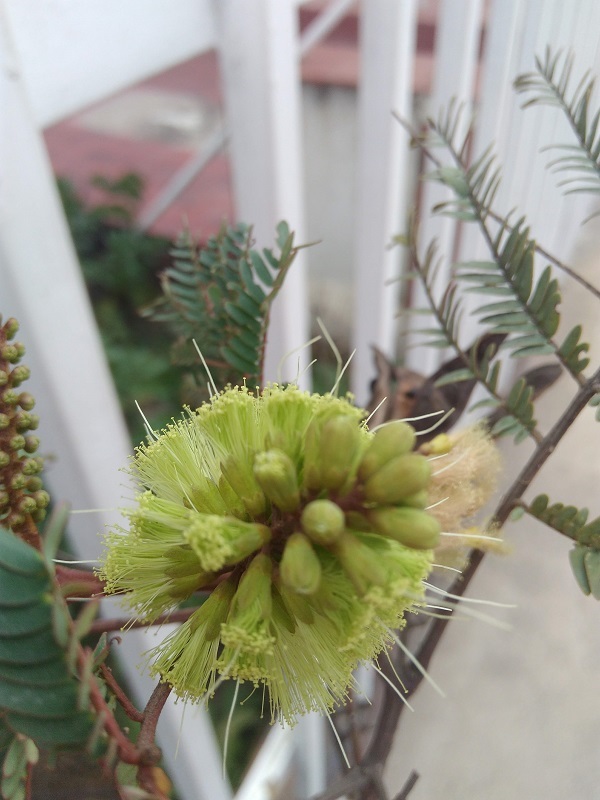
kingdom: Plantae
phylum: Tracheophyta
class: Magnoliopsida
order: Fabales
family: Fabaceae
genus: Paraserianthes
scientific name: Paraserianthes lophantha
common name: Plume albizia
